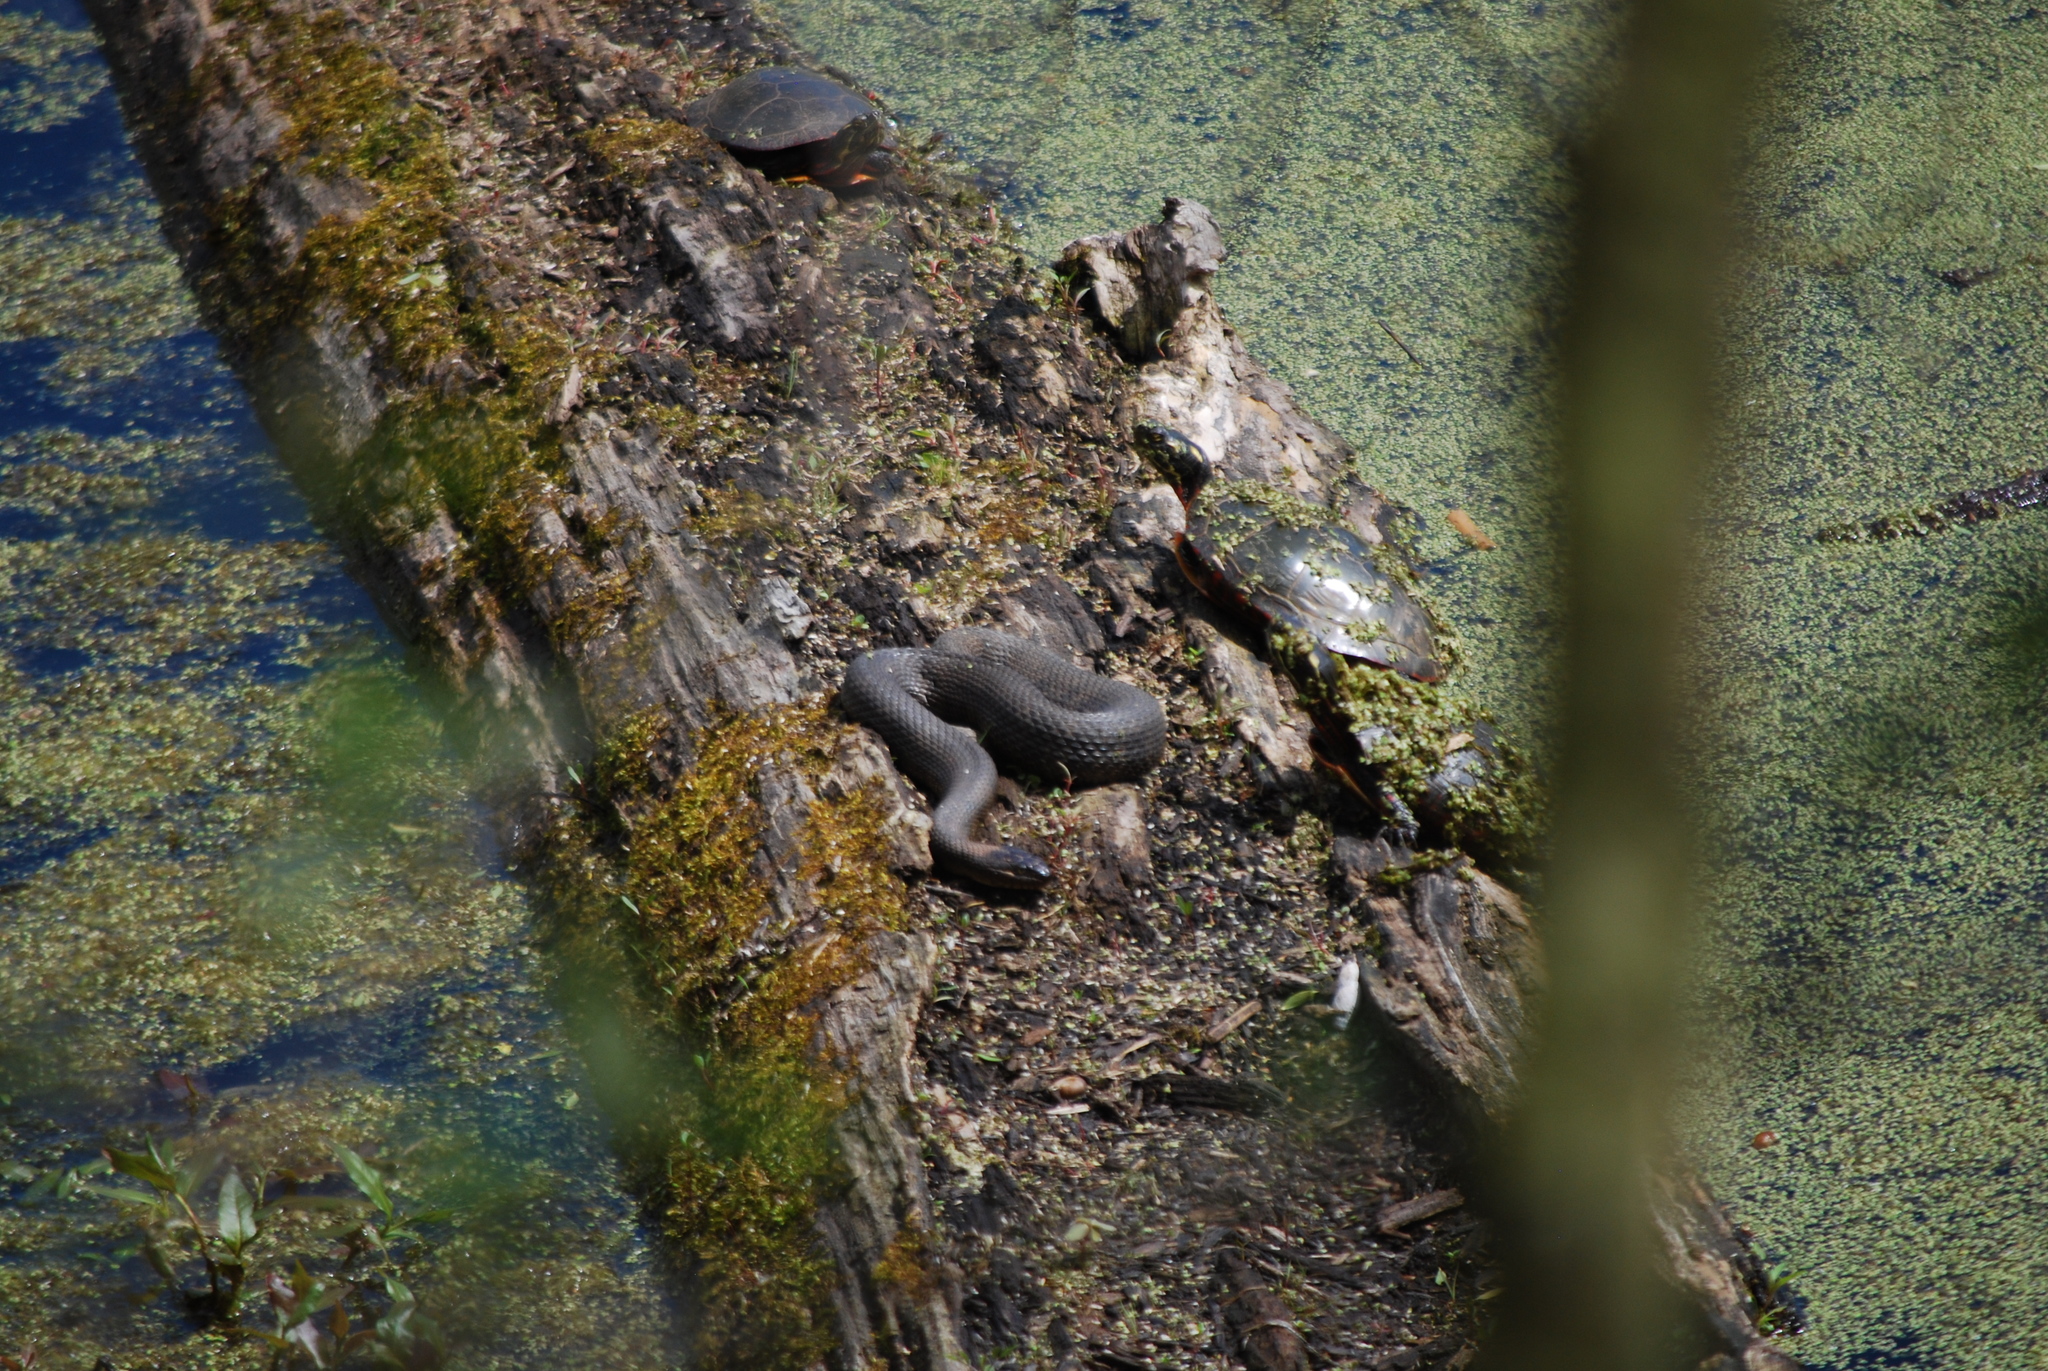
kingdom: Animalia
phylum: Chordata
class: Squamata
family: Colubridae
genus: Nerodia
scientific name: Nerodia sipedon
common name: Northern water snake
